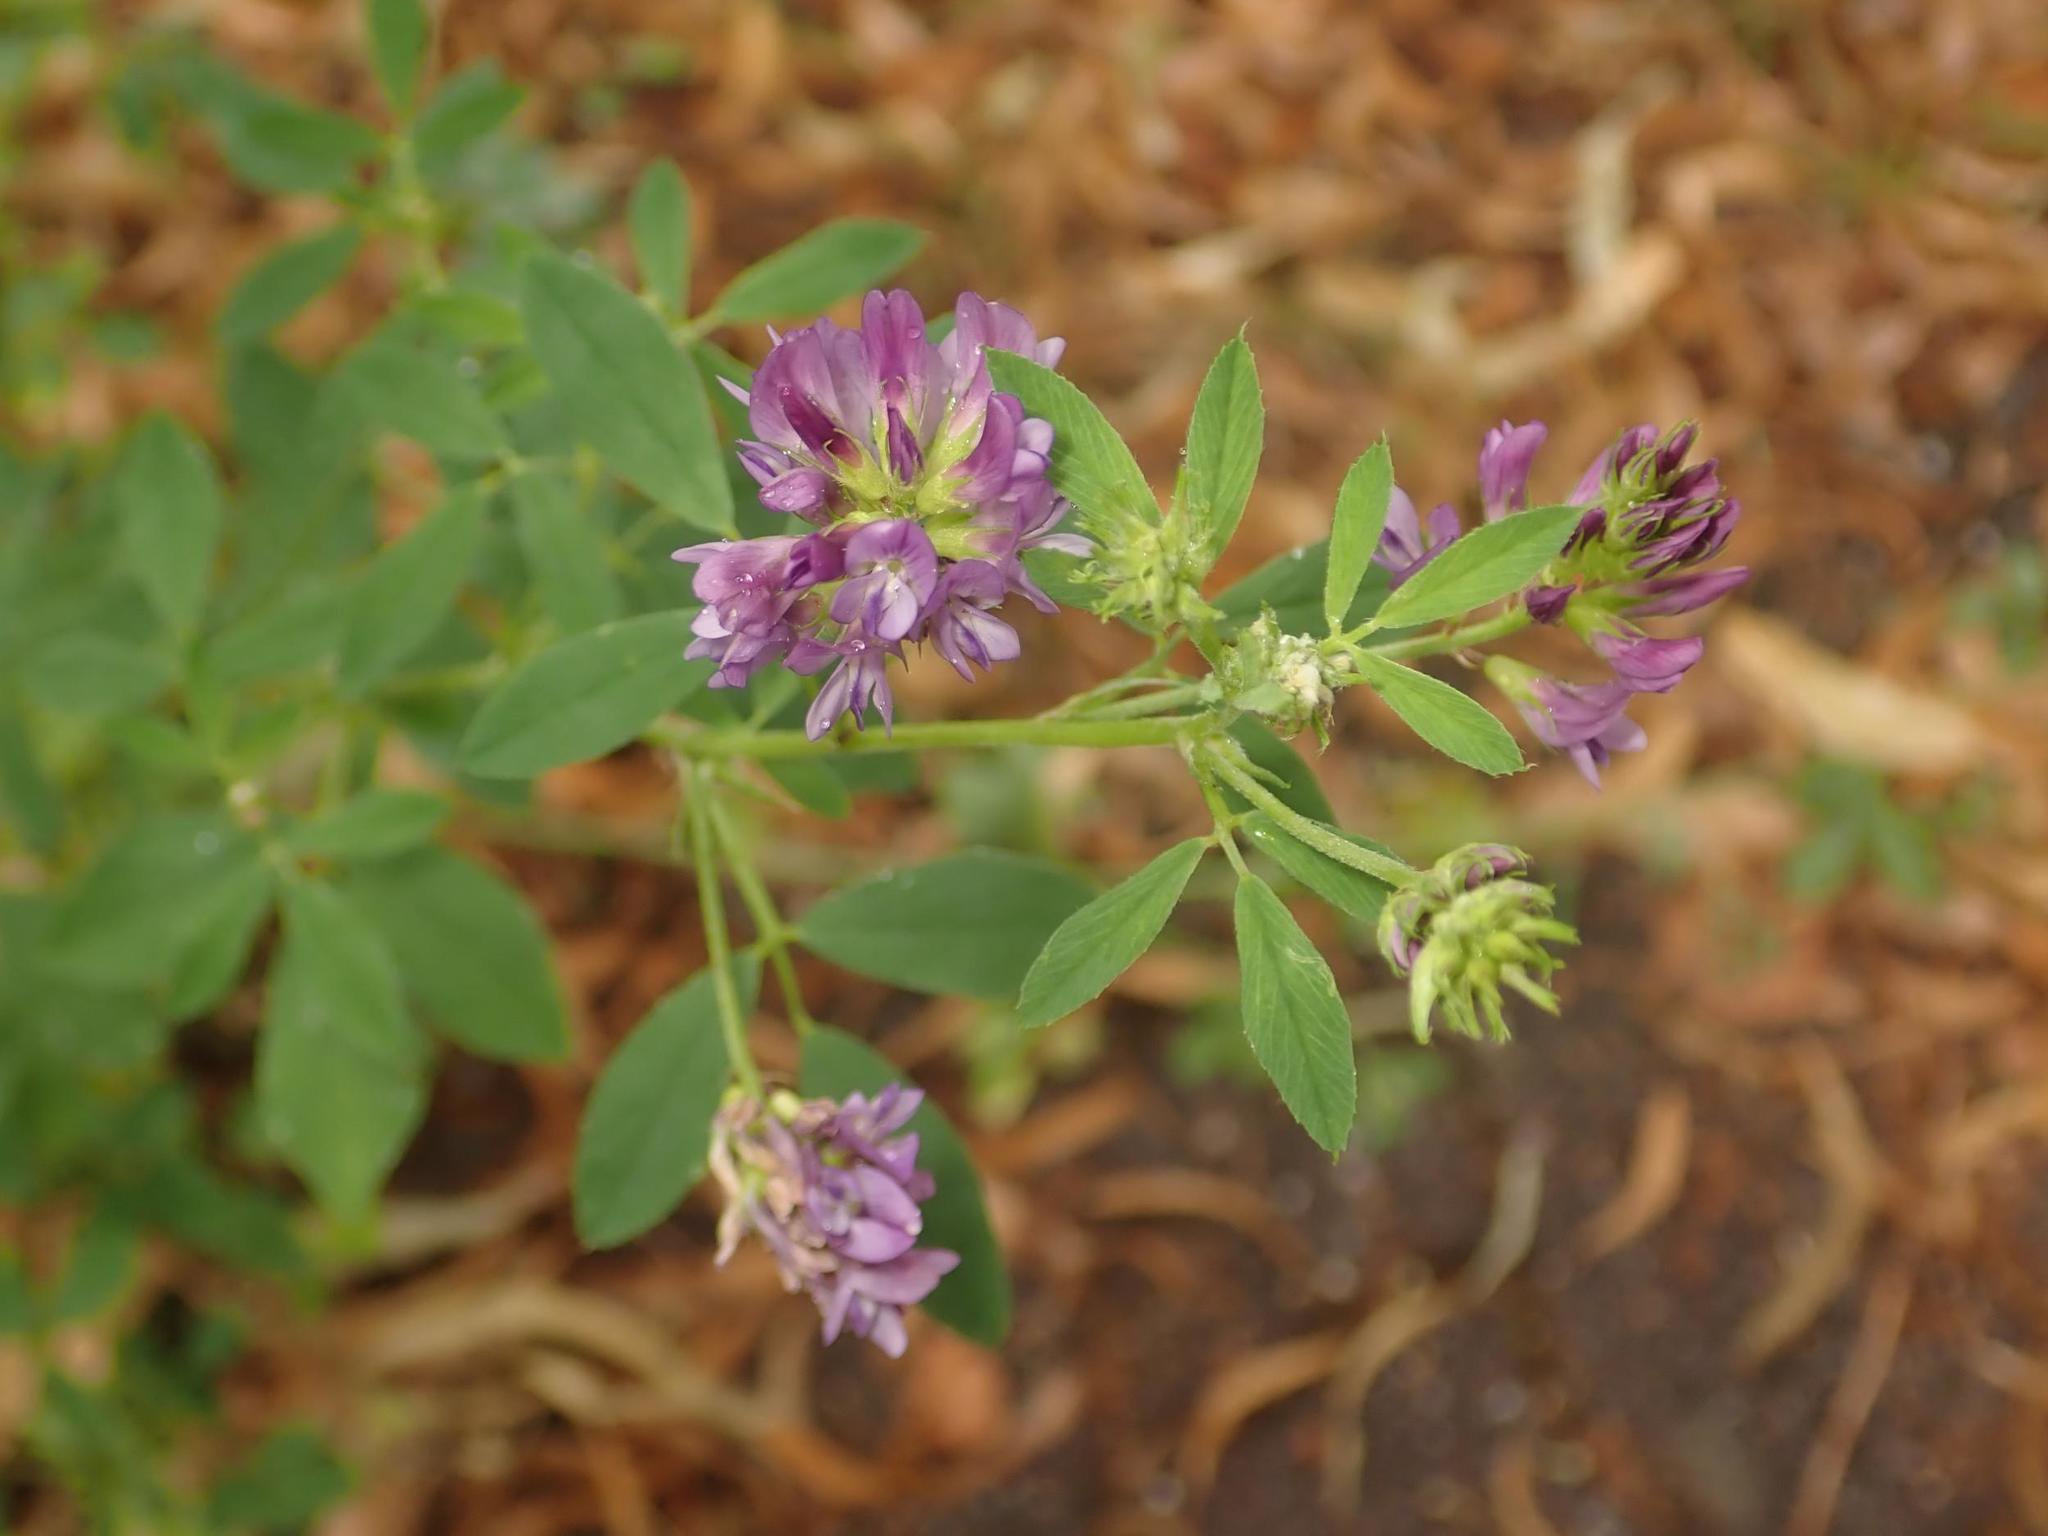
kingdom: Plantae
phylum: Tracheophyta
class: Magnoliopsida
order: Fabales
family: Fabaceae
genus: Medicago
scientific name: Medicago sativa
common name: Alfalfa
